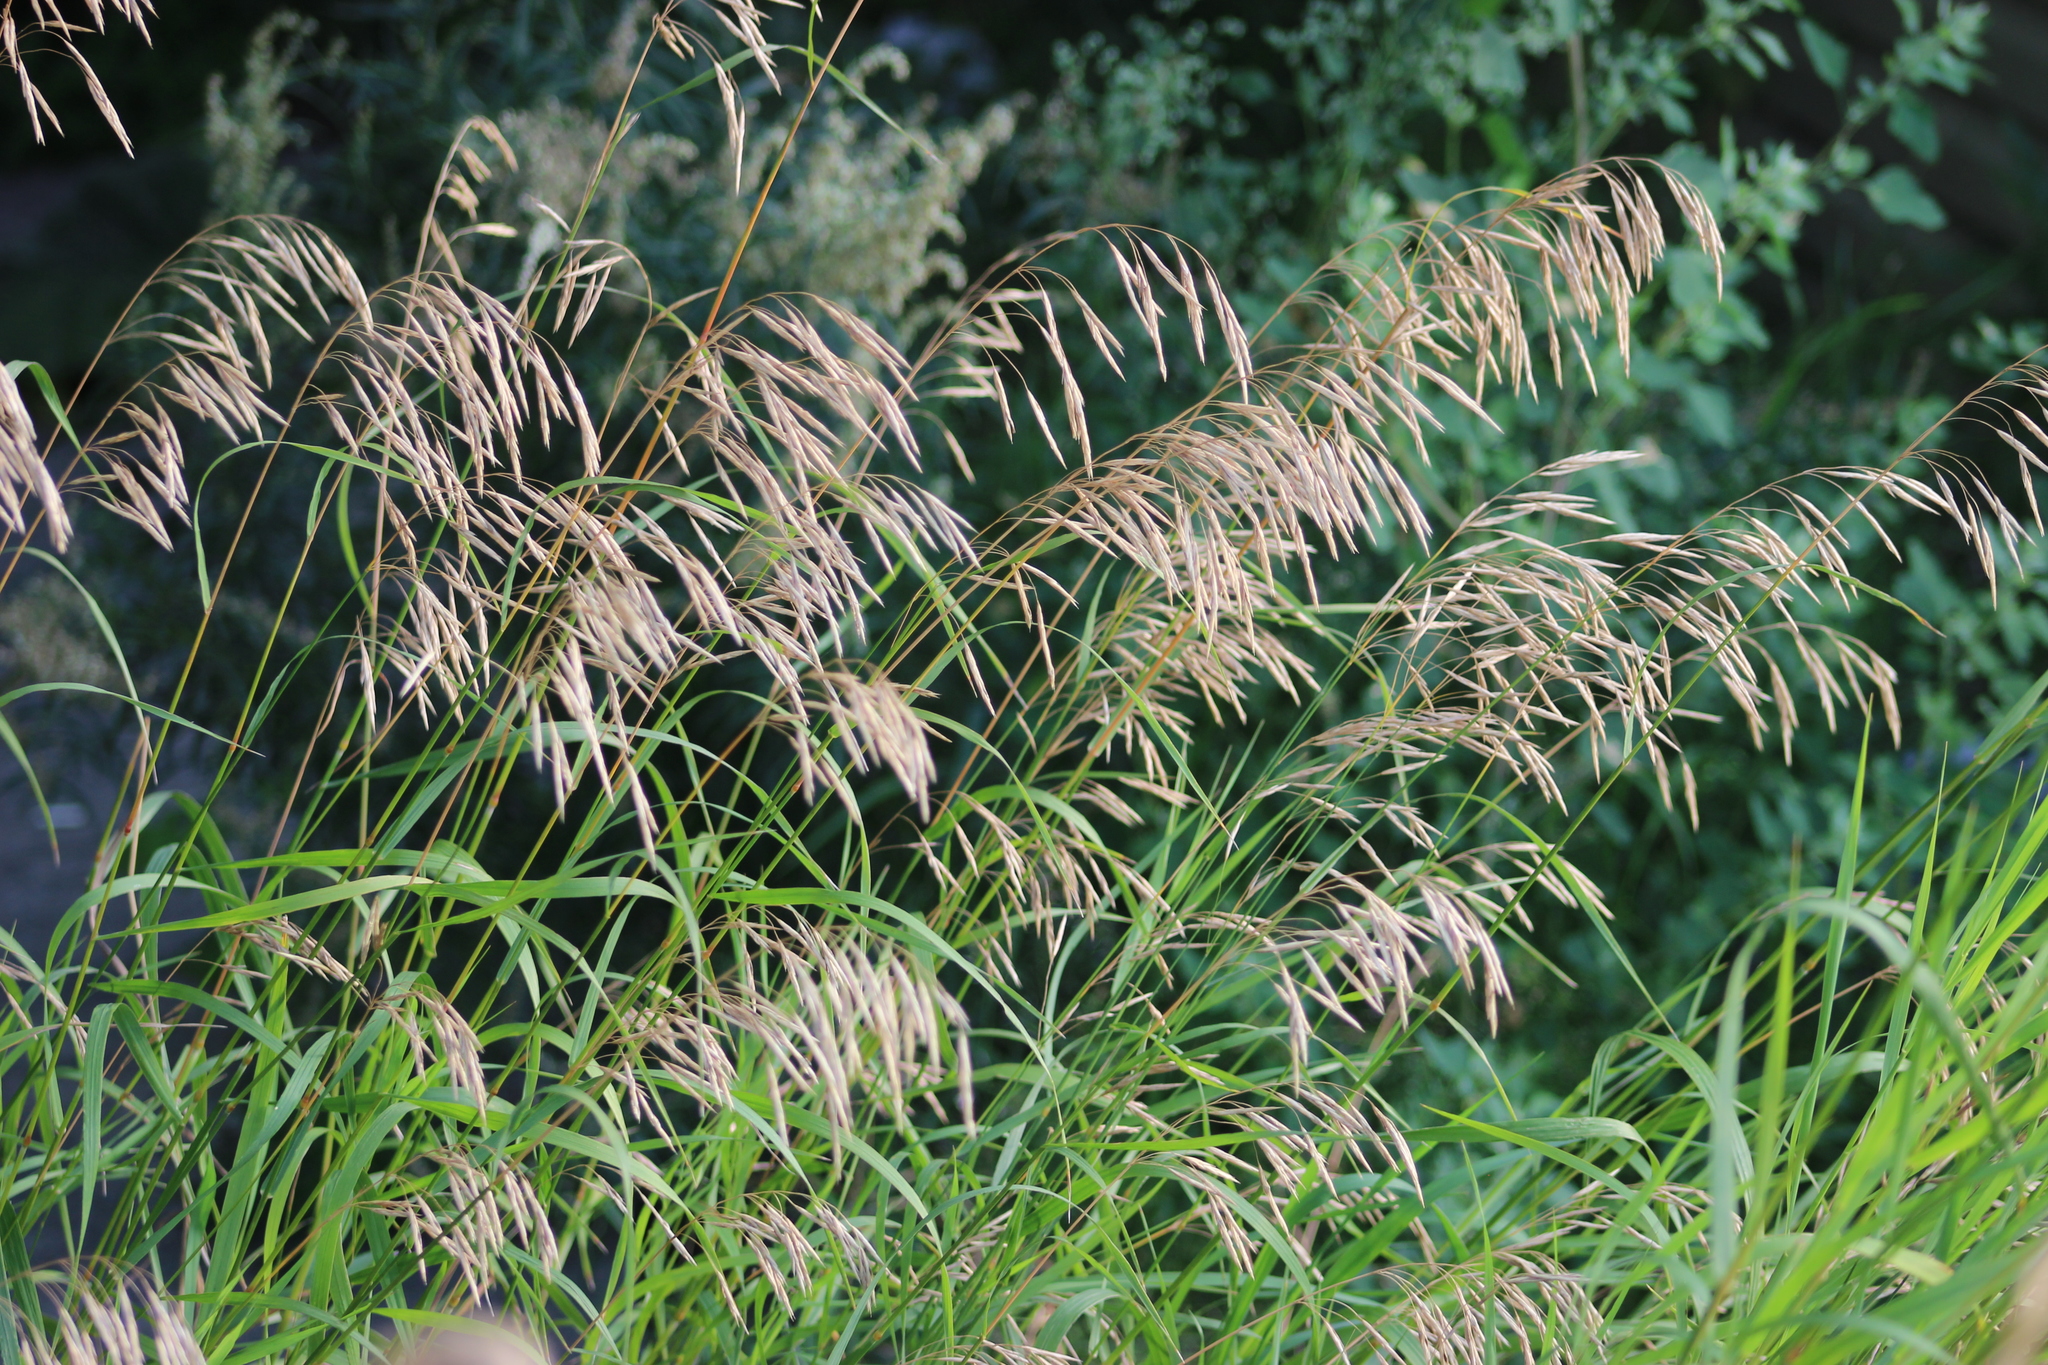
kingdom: Plantae
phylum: Tracheophyta
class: Liliopsida
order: Poales
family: Poaceae
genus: Bromus
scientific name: Bromus inermis
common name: Smooth brome
